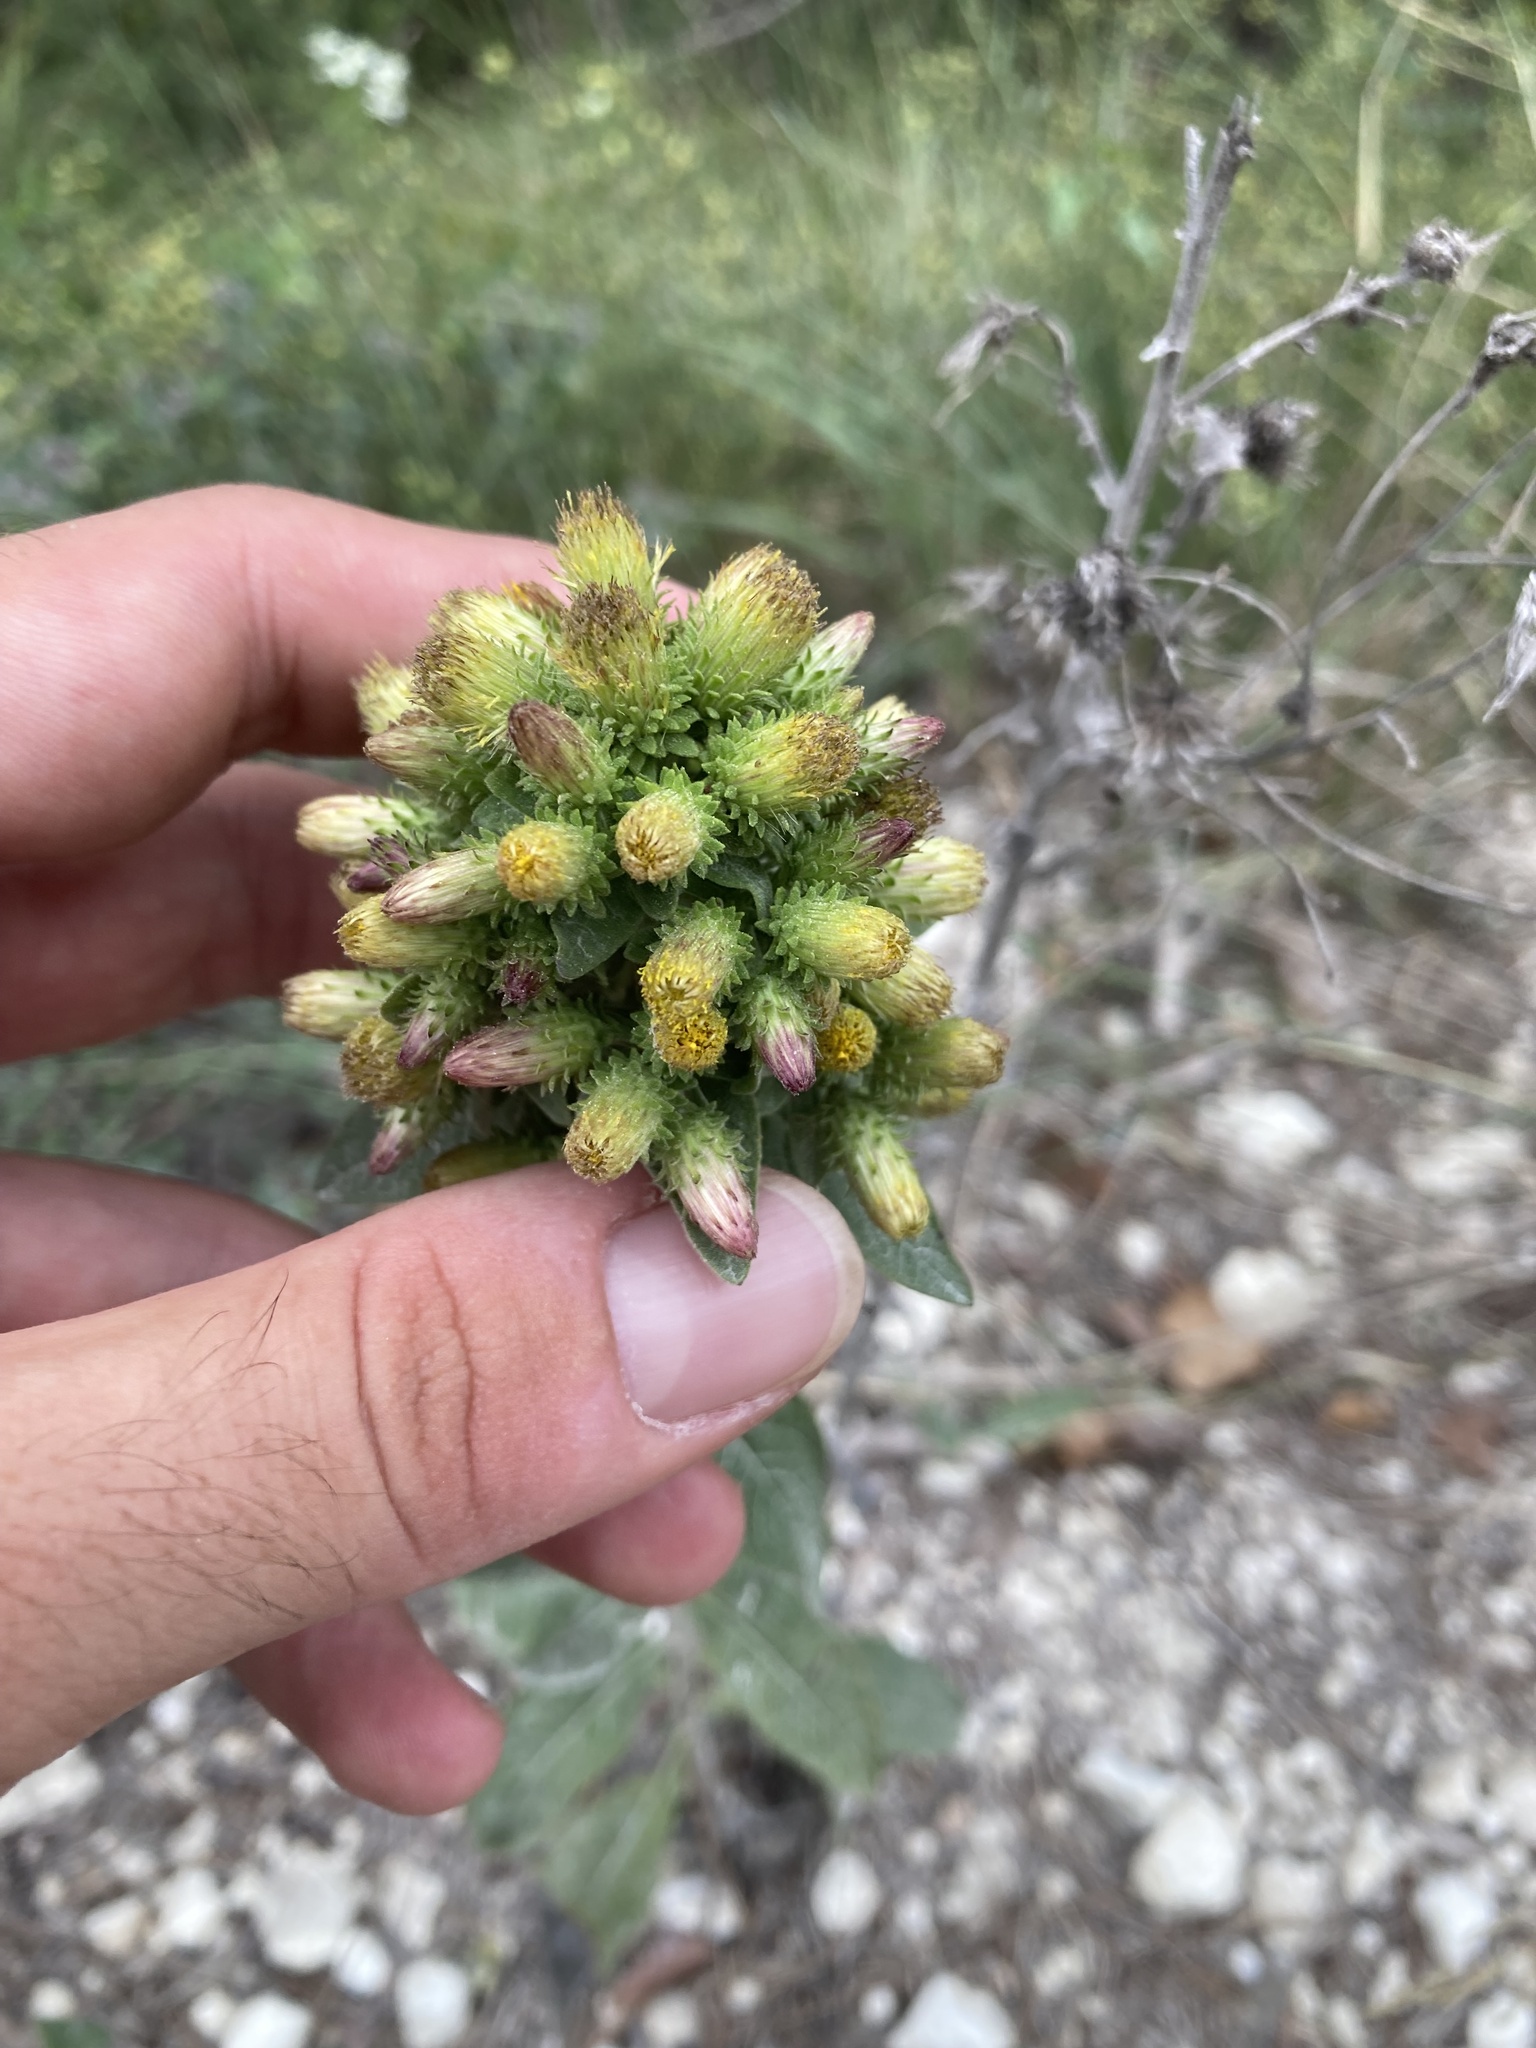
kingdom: Plantae
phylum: Tracheophyta
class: Magnoliopsida
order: Asterales
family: Asteraceae
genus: Pentanema
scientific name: Pentanema squarrosum
